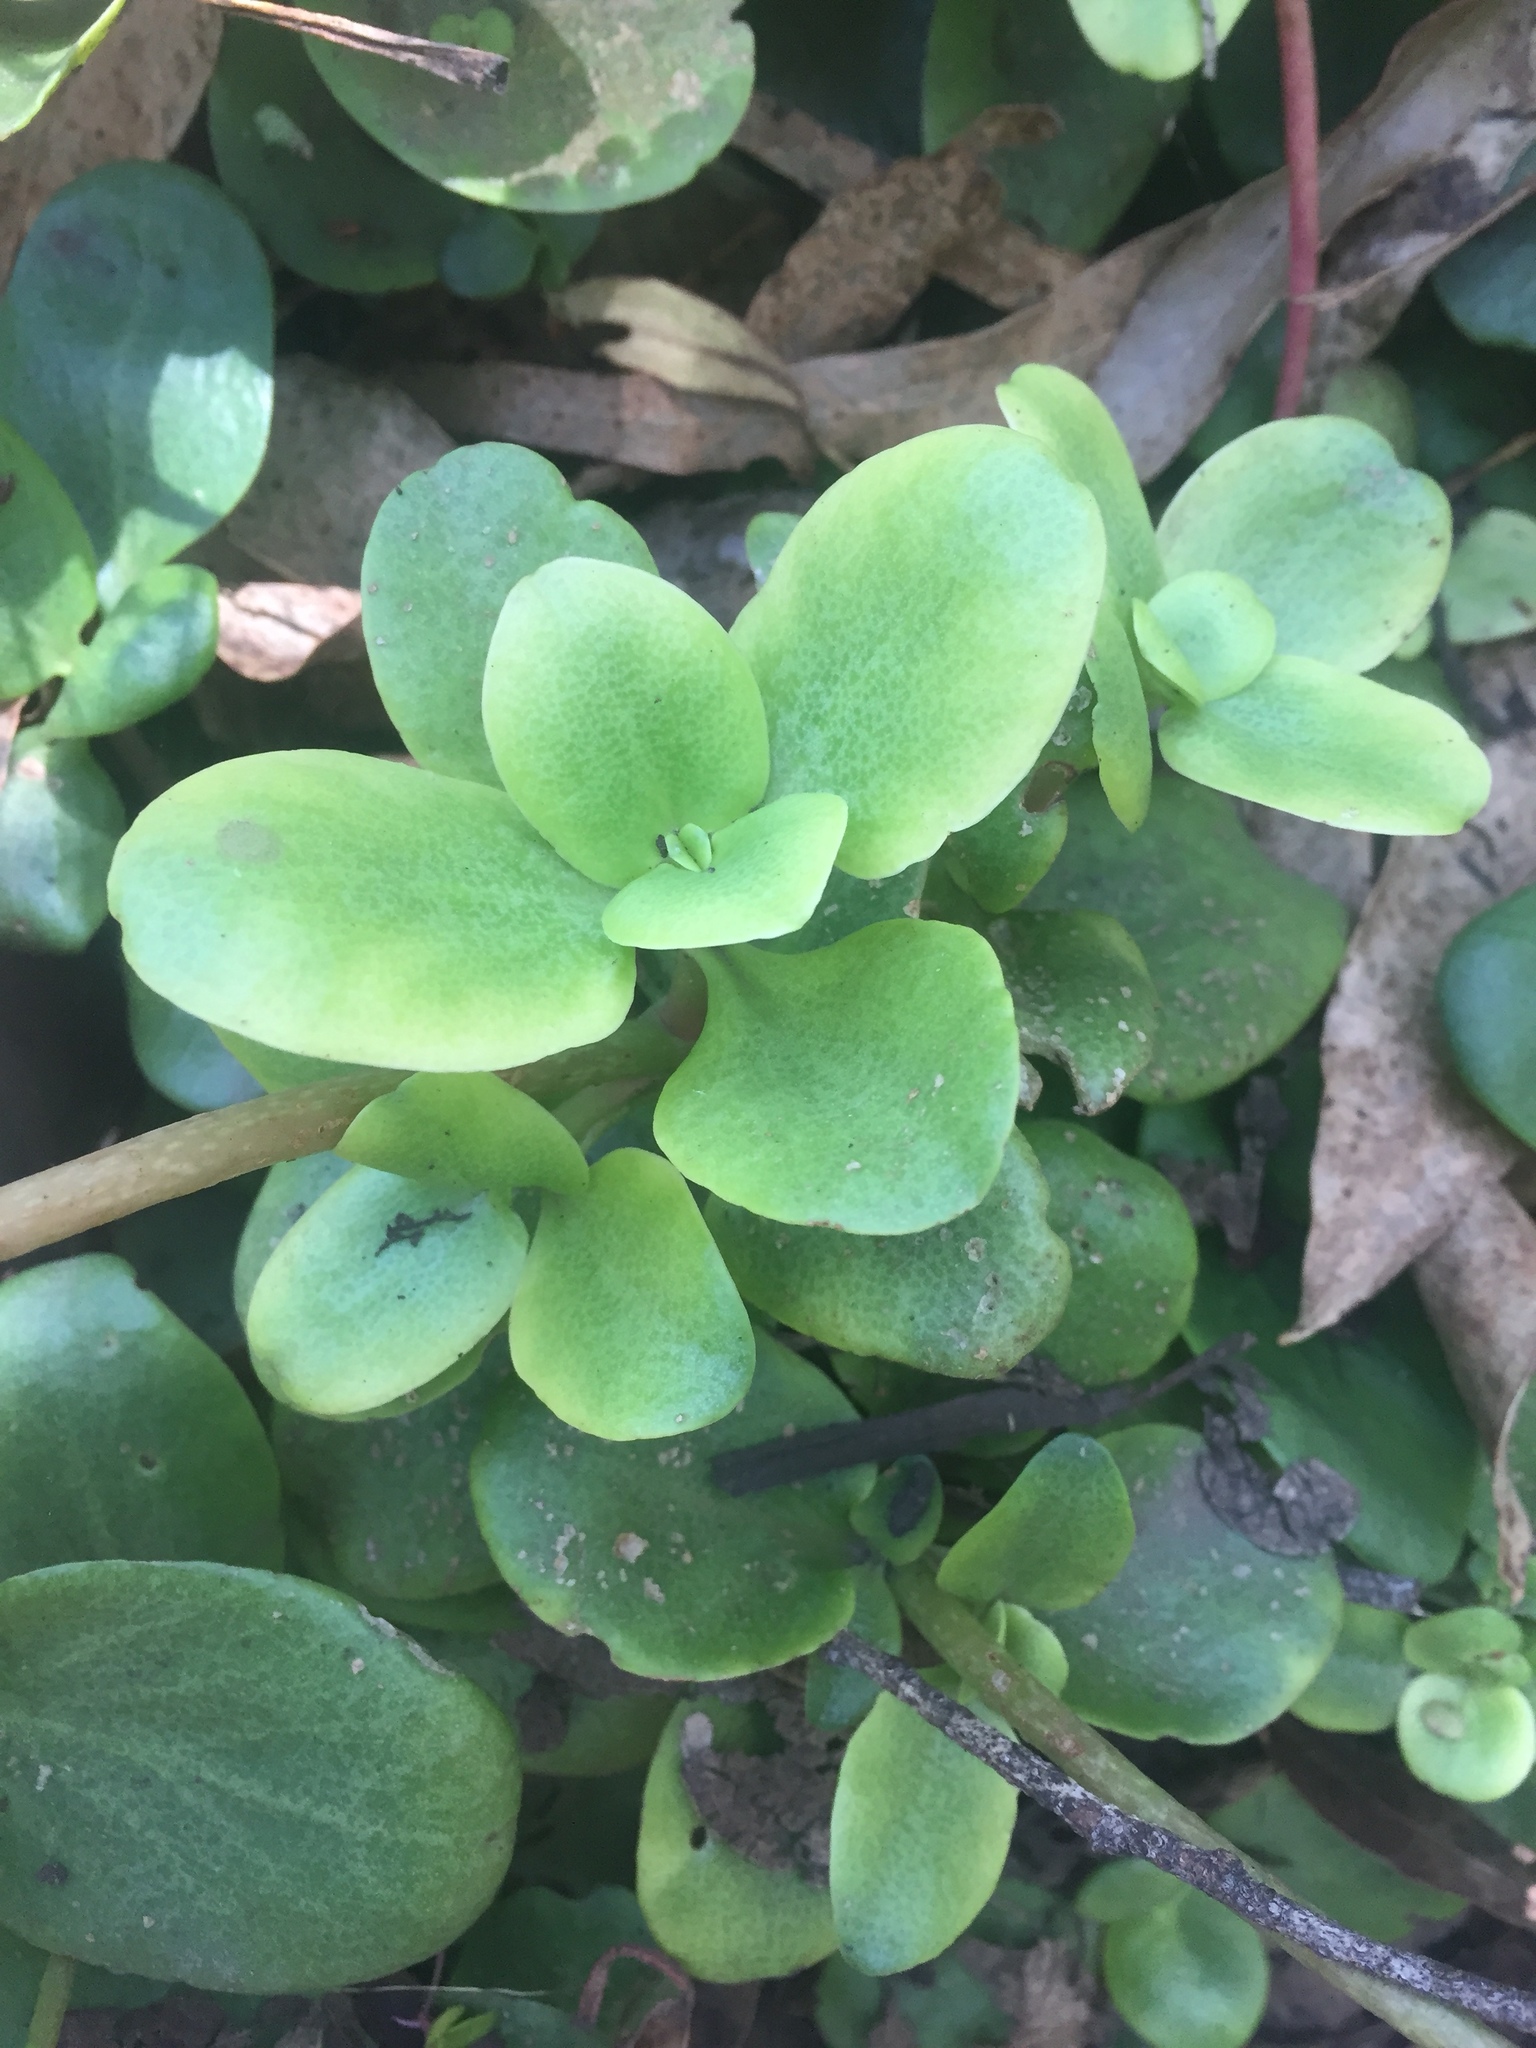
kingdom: Plantae
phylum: Tracheophyta
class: Magnoliopsida
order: Saxifragales
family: Crassulaceae
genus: Crassula
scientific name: Crassula multicava
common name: Cape province pygmyweed
